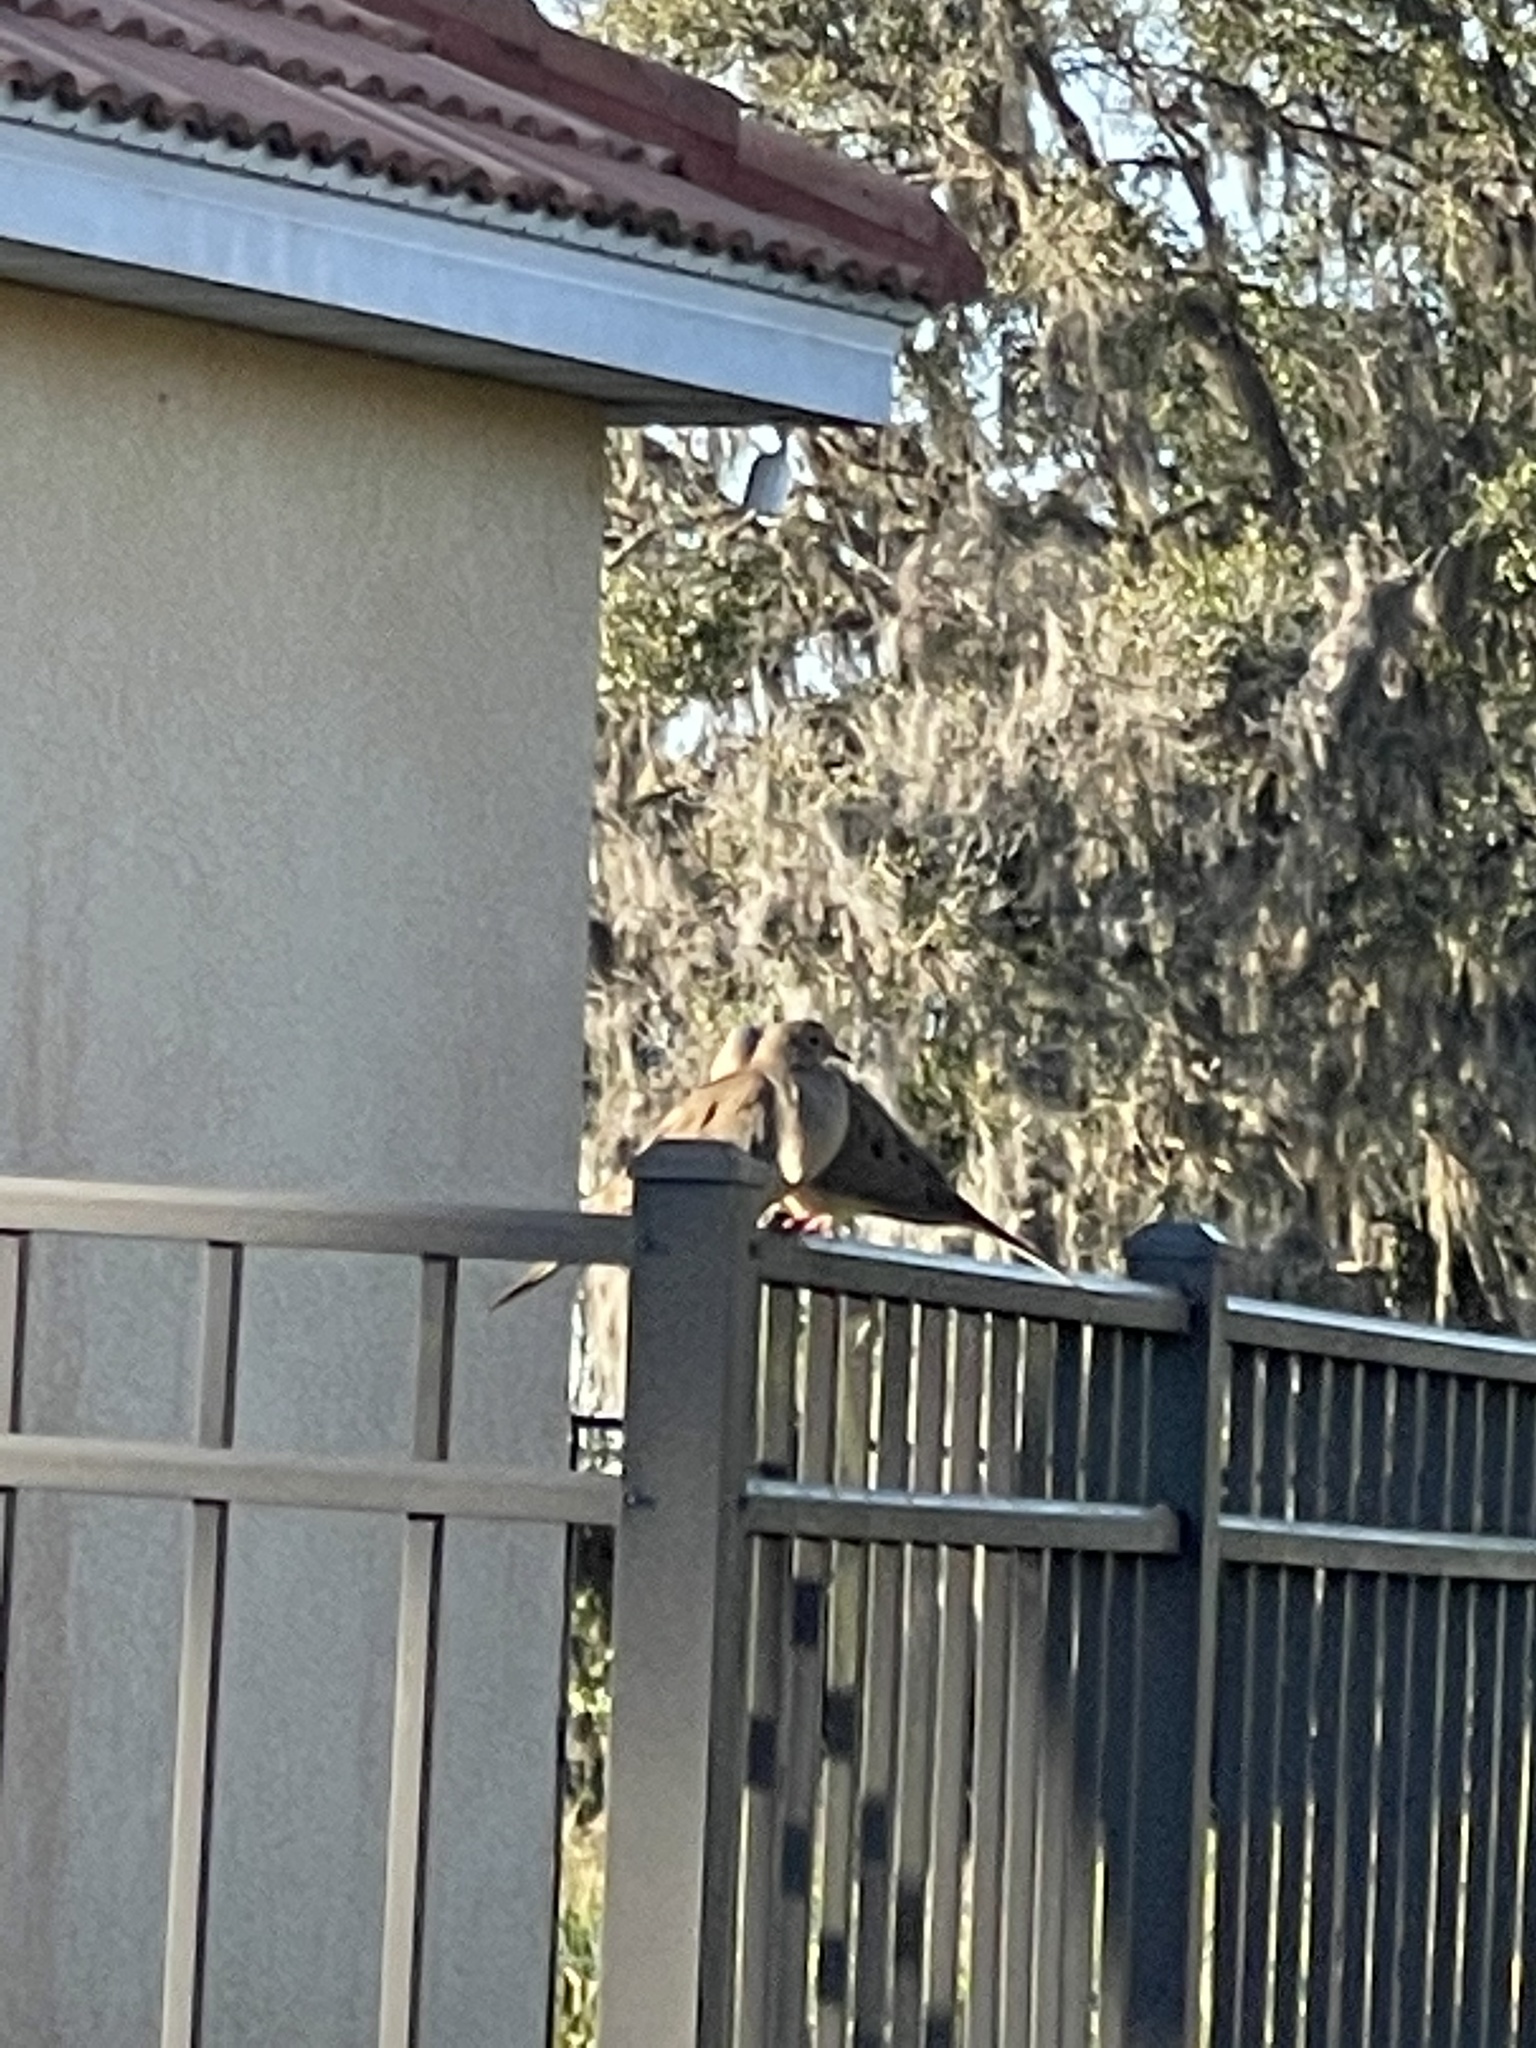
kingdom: Animalia
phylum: Chordata
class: Aves
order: Columbiformes
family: Columbidae
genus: Zenaida
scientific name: Zenaida macroura
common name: Mourning dove
